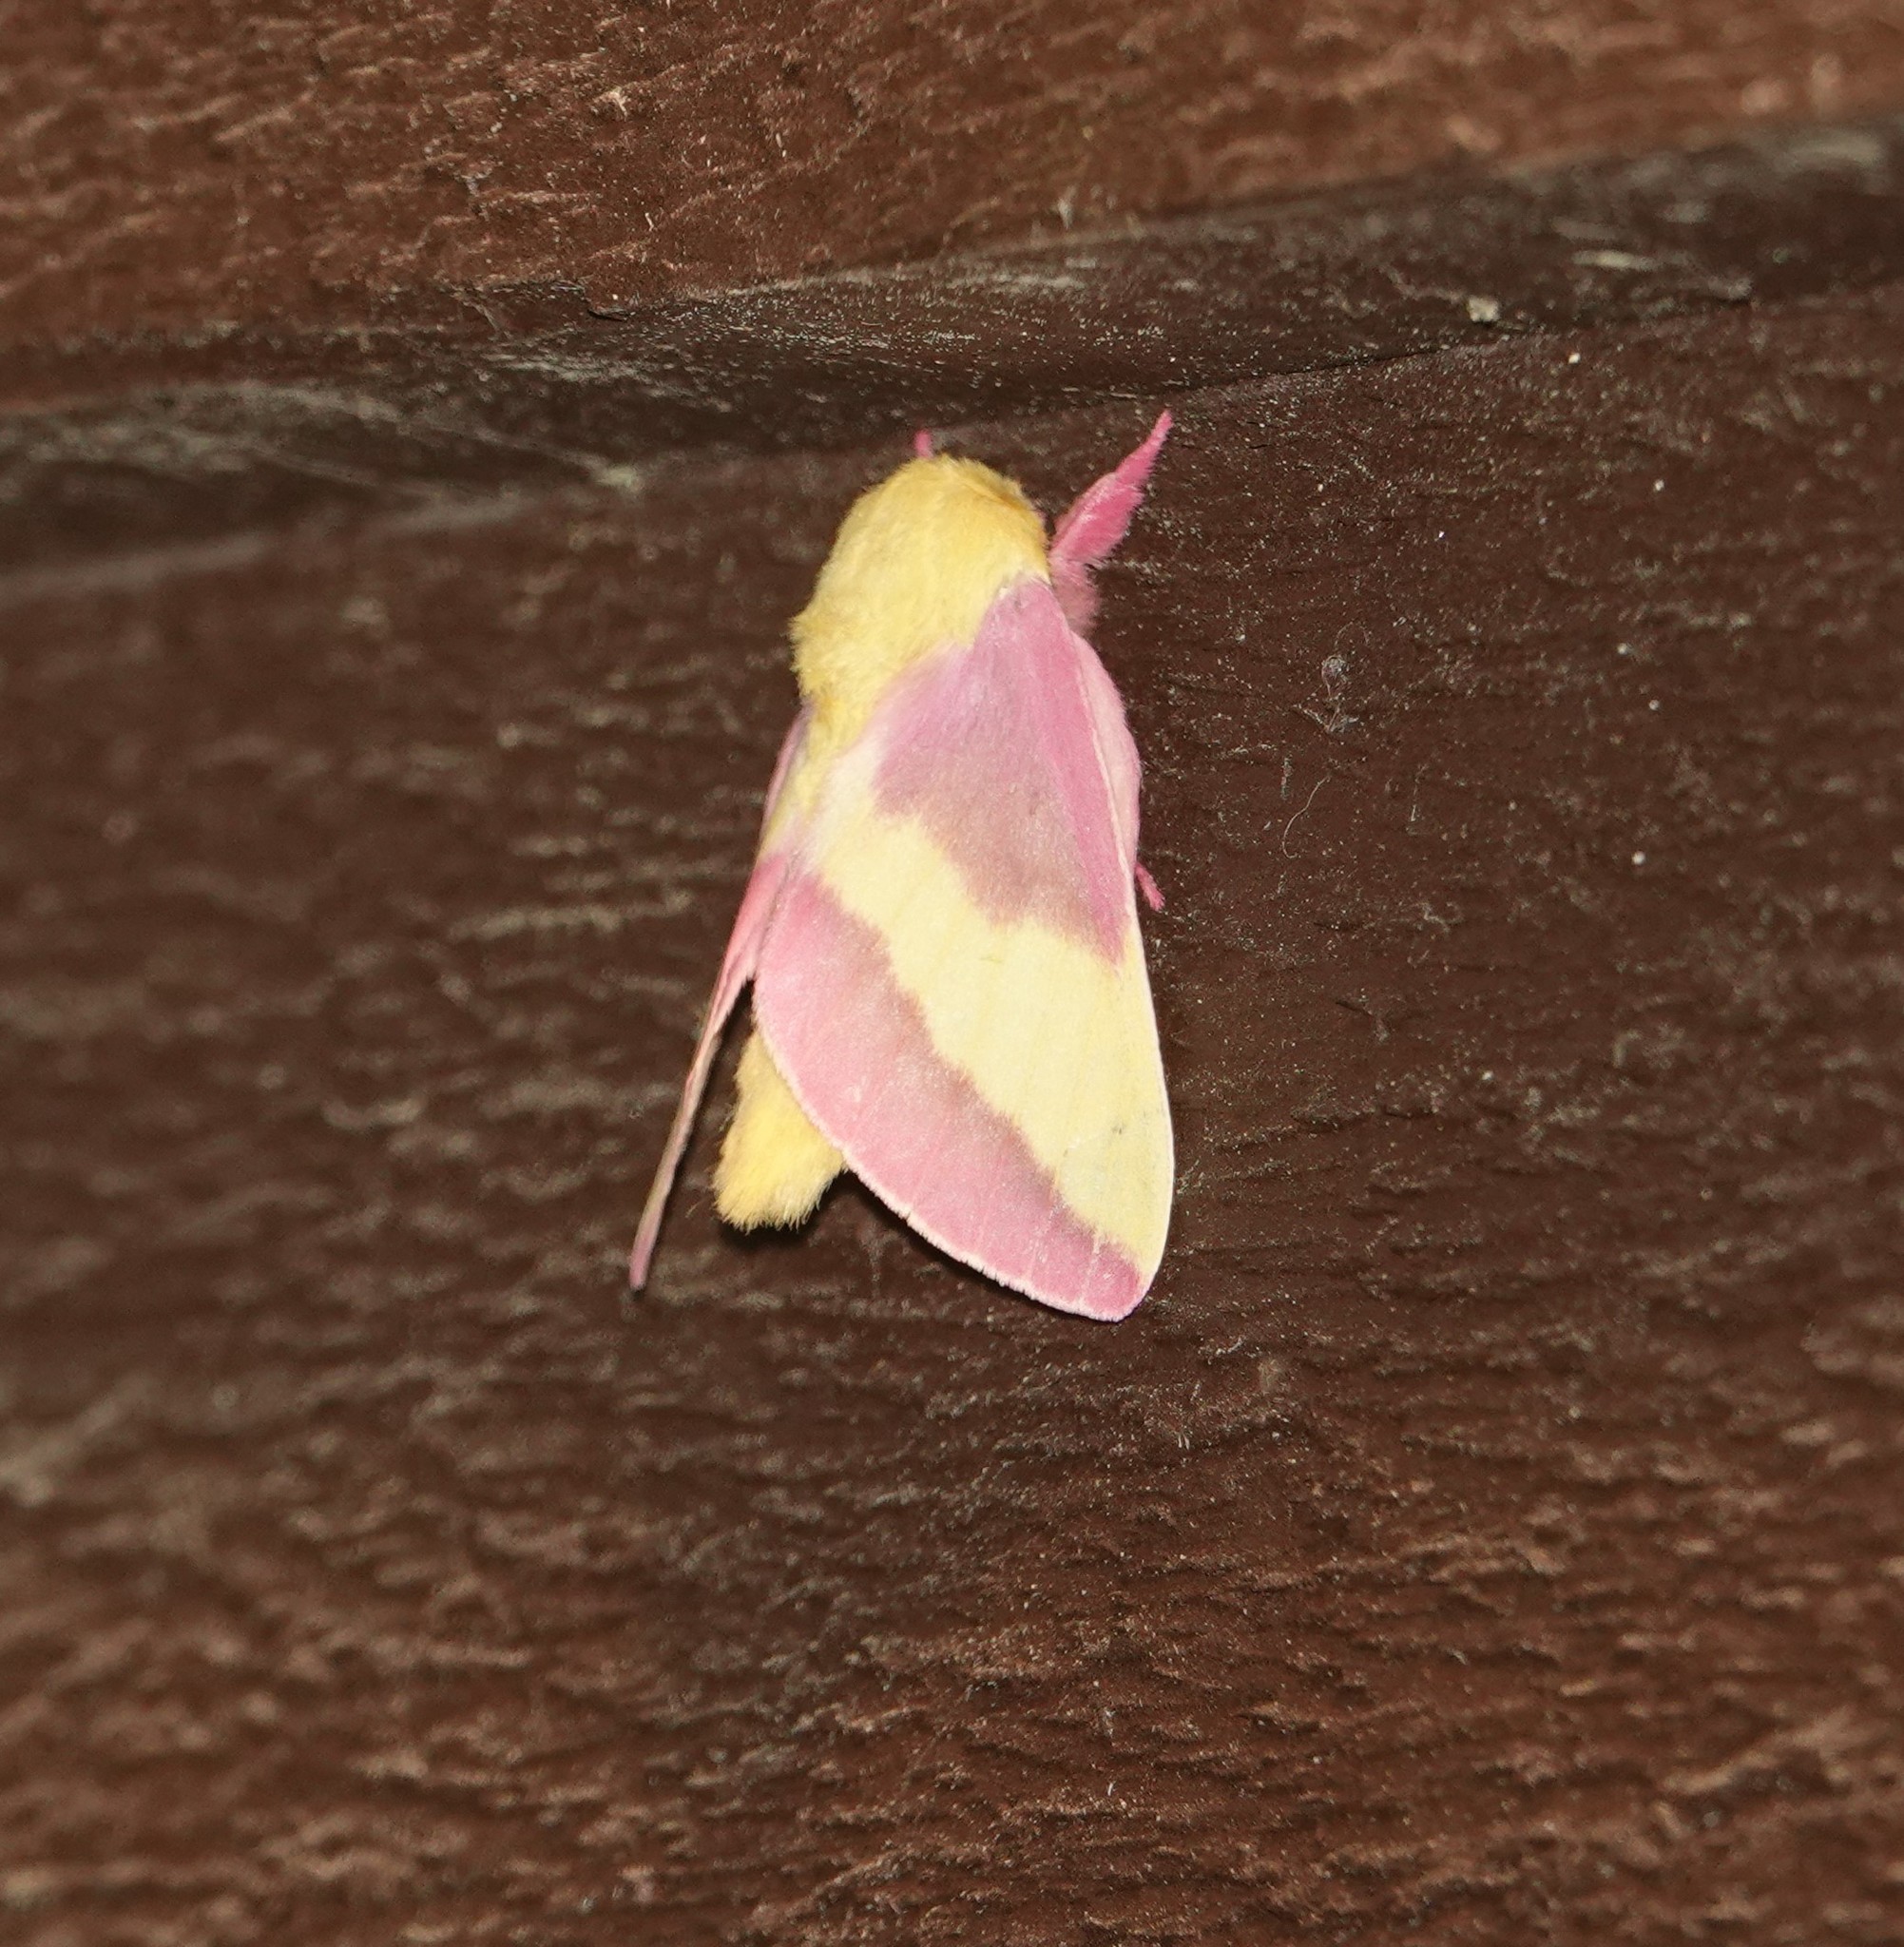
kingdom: Animalia
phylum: Arthropoda
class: Insecta
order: Lepidoptera
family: Saturniidae
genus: Dryocampa
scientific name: Dryocampa rubicunda
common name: Rosy maple moth
